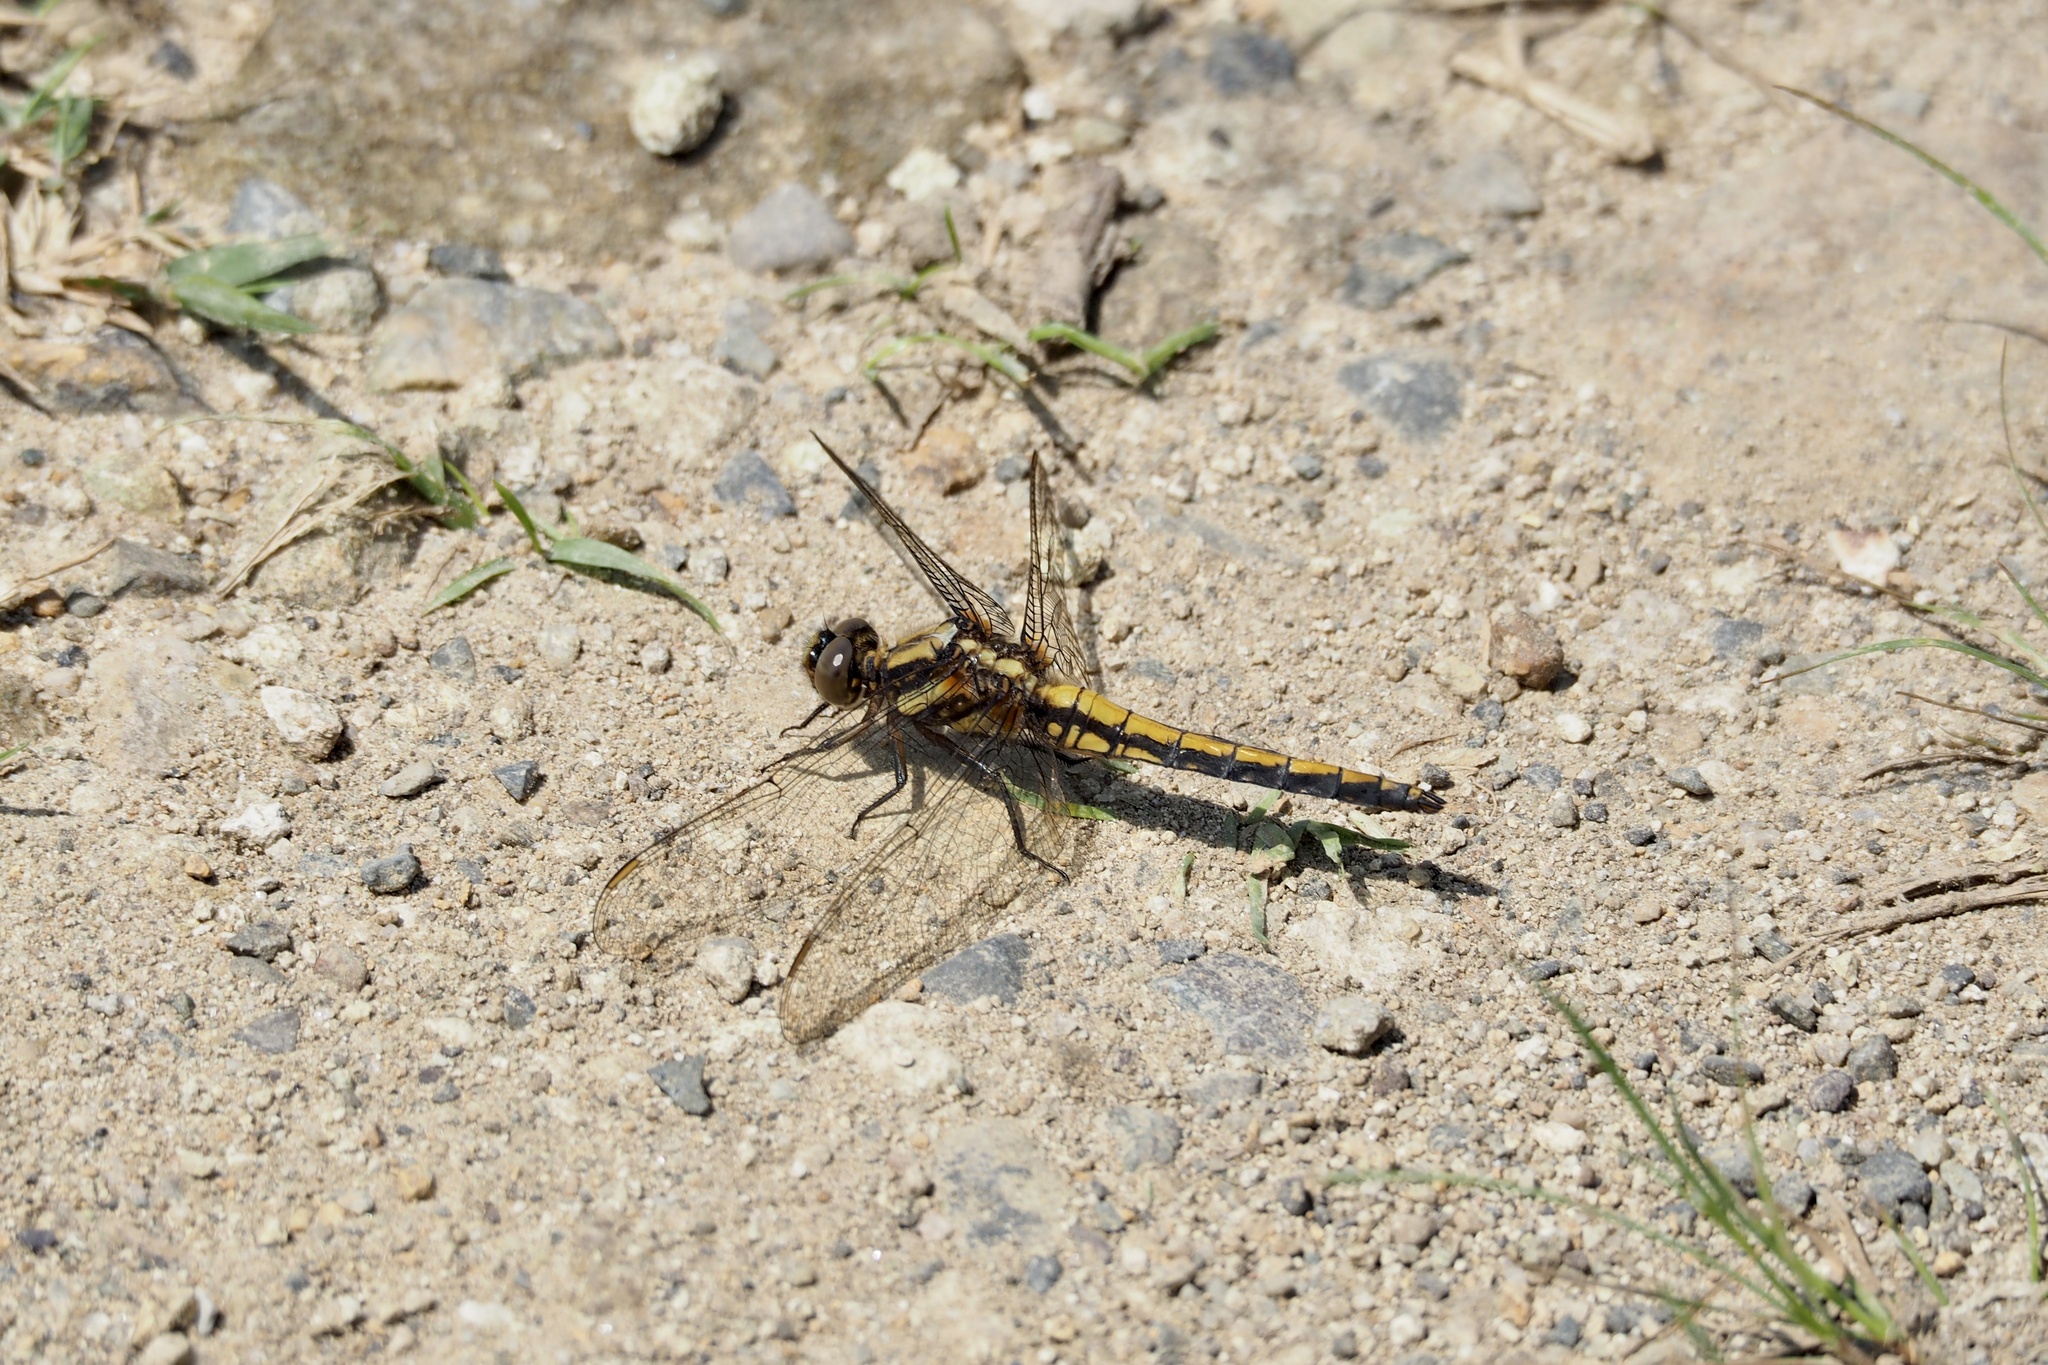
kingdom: Animalia
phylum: Arthropoda
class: Insecta
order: Odonata
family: Libellulidae
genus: Orthetrum
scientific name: Orthetrum japonicum
